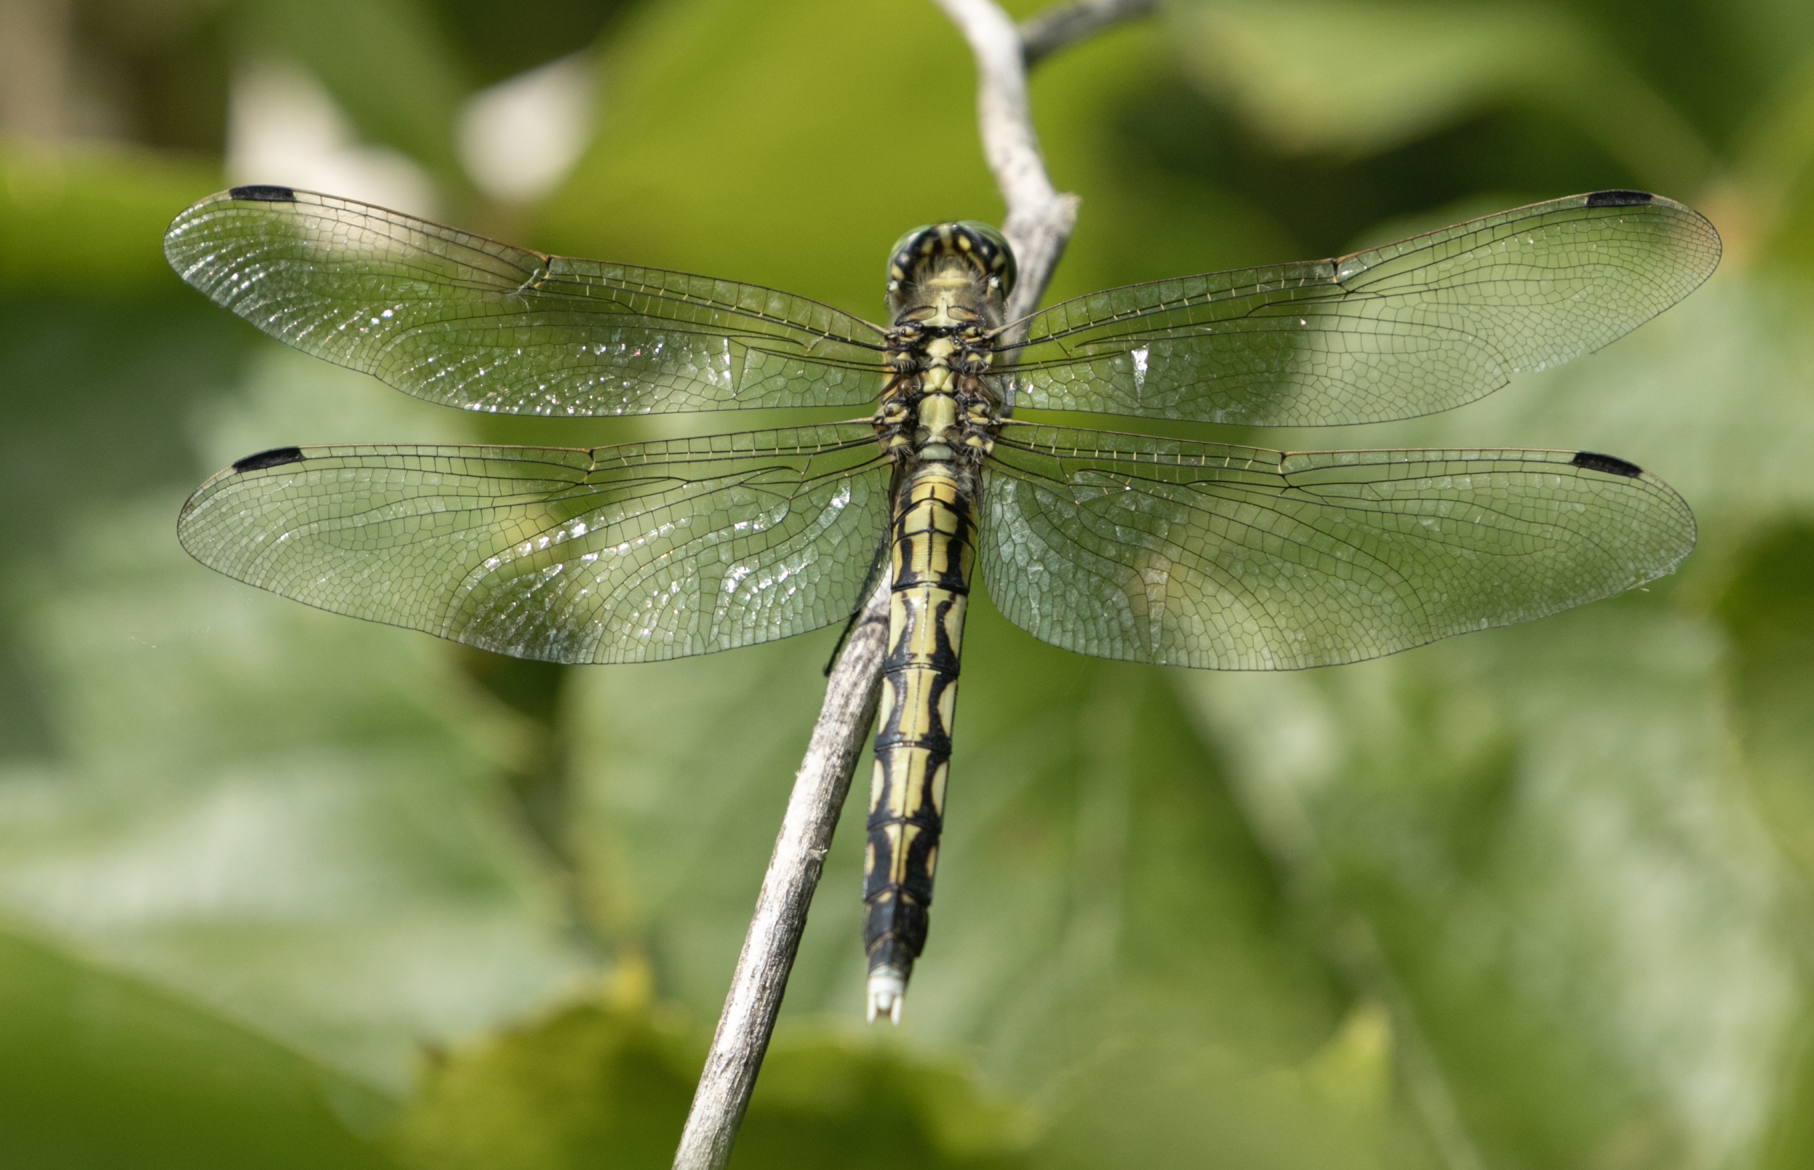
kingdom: Animalia
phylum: Arthropoda
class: Insecta
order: Odonata
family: Libellulidae
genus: Orthetrum
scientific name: Orthetrum albistylum
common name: White-tailed skimmer
